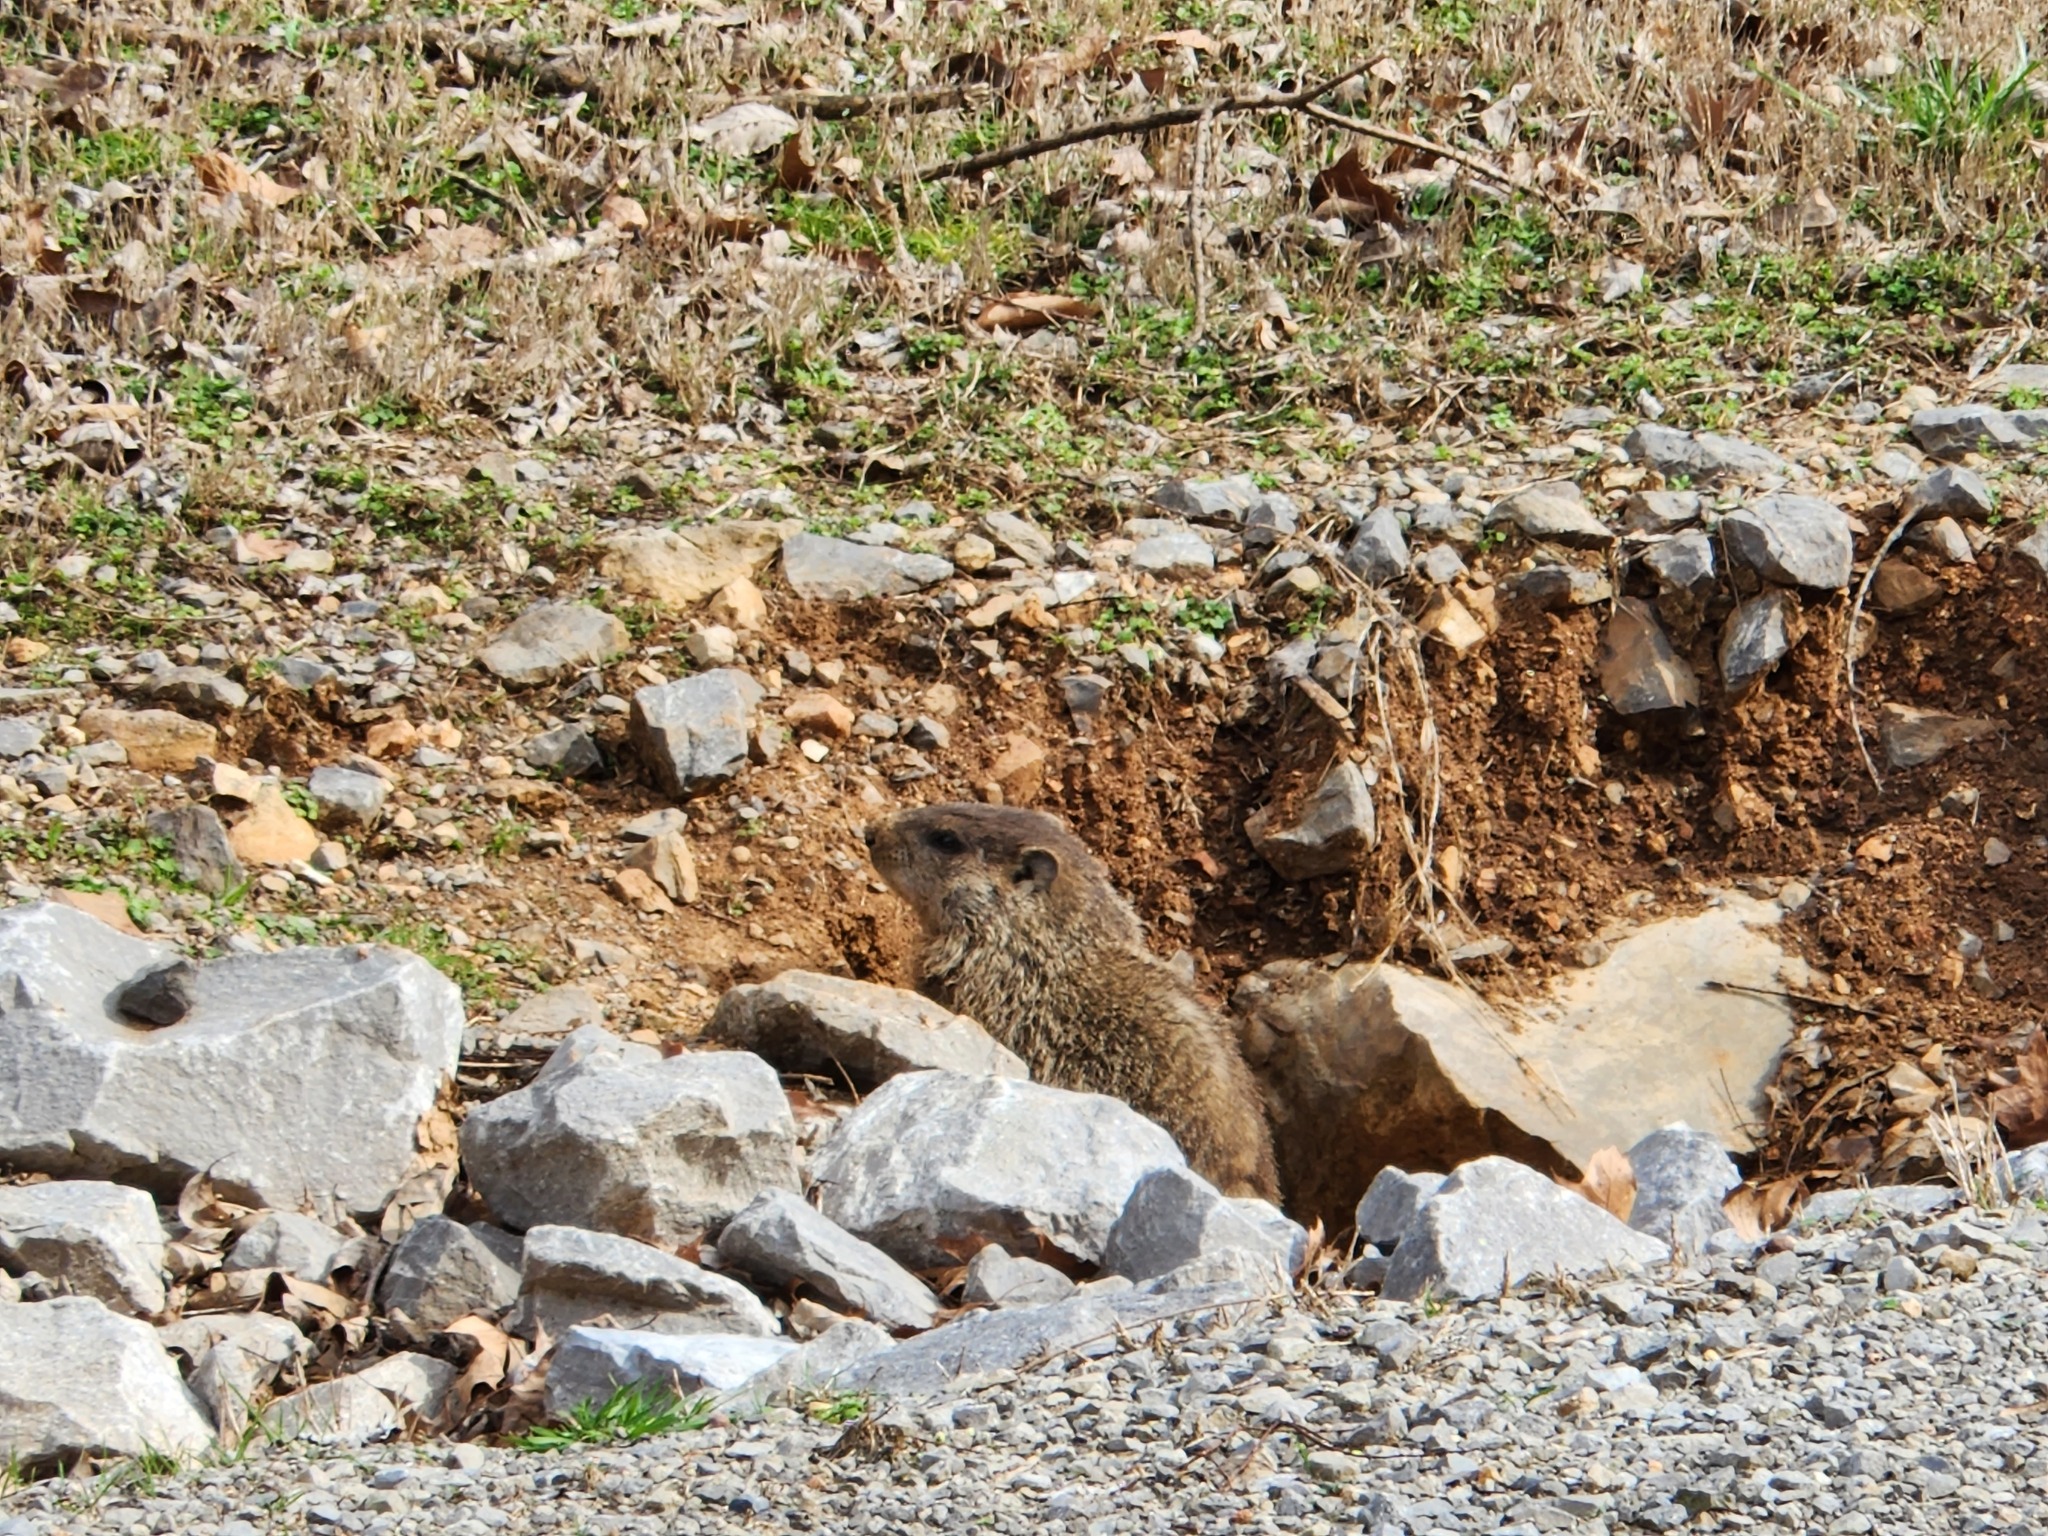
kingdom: Animalia
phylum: Chordata
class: Mammalia
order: Rodentia
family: Sciuridae
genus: Marmota
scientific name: Marmota monax
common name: Groundhog
